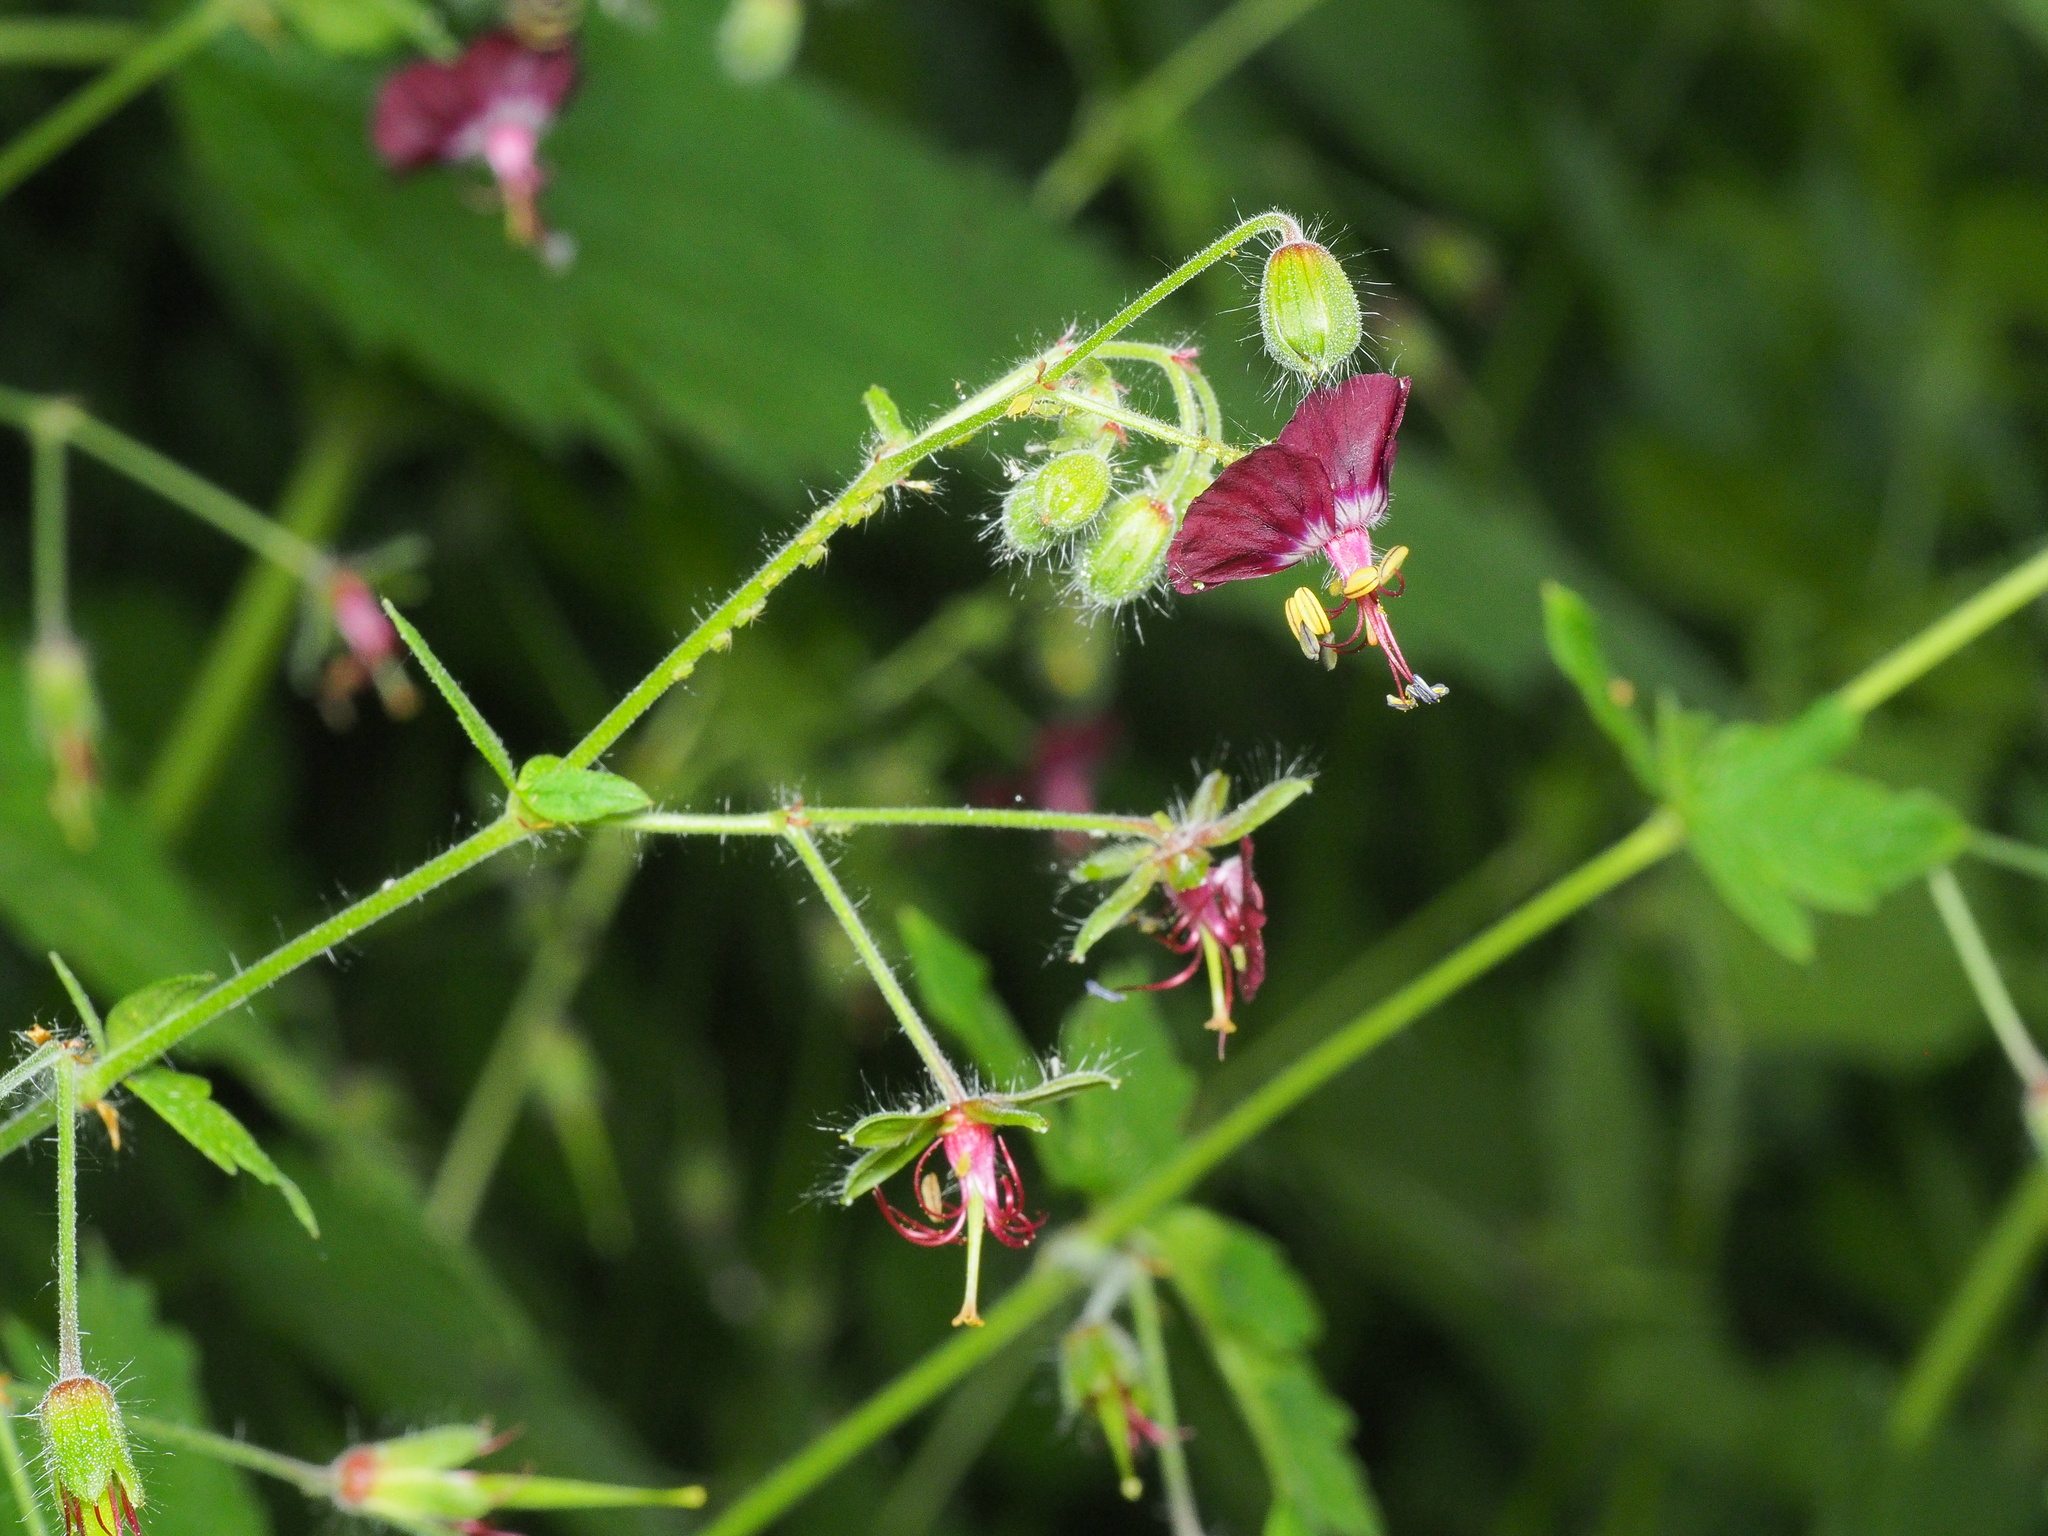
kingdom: Plantae
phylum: Tracheophyta
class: Magnoliopsida
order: Geraniales
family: Geraniaceae
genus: Geranium
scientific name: Geranium phaeum
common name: Dusky crane's-bill
